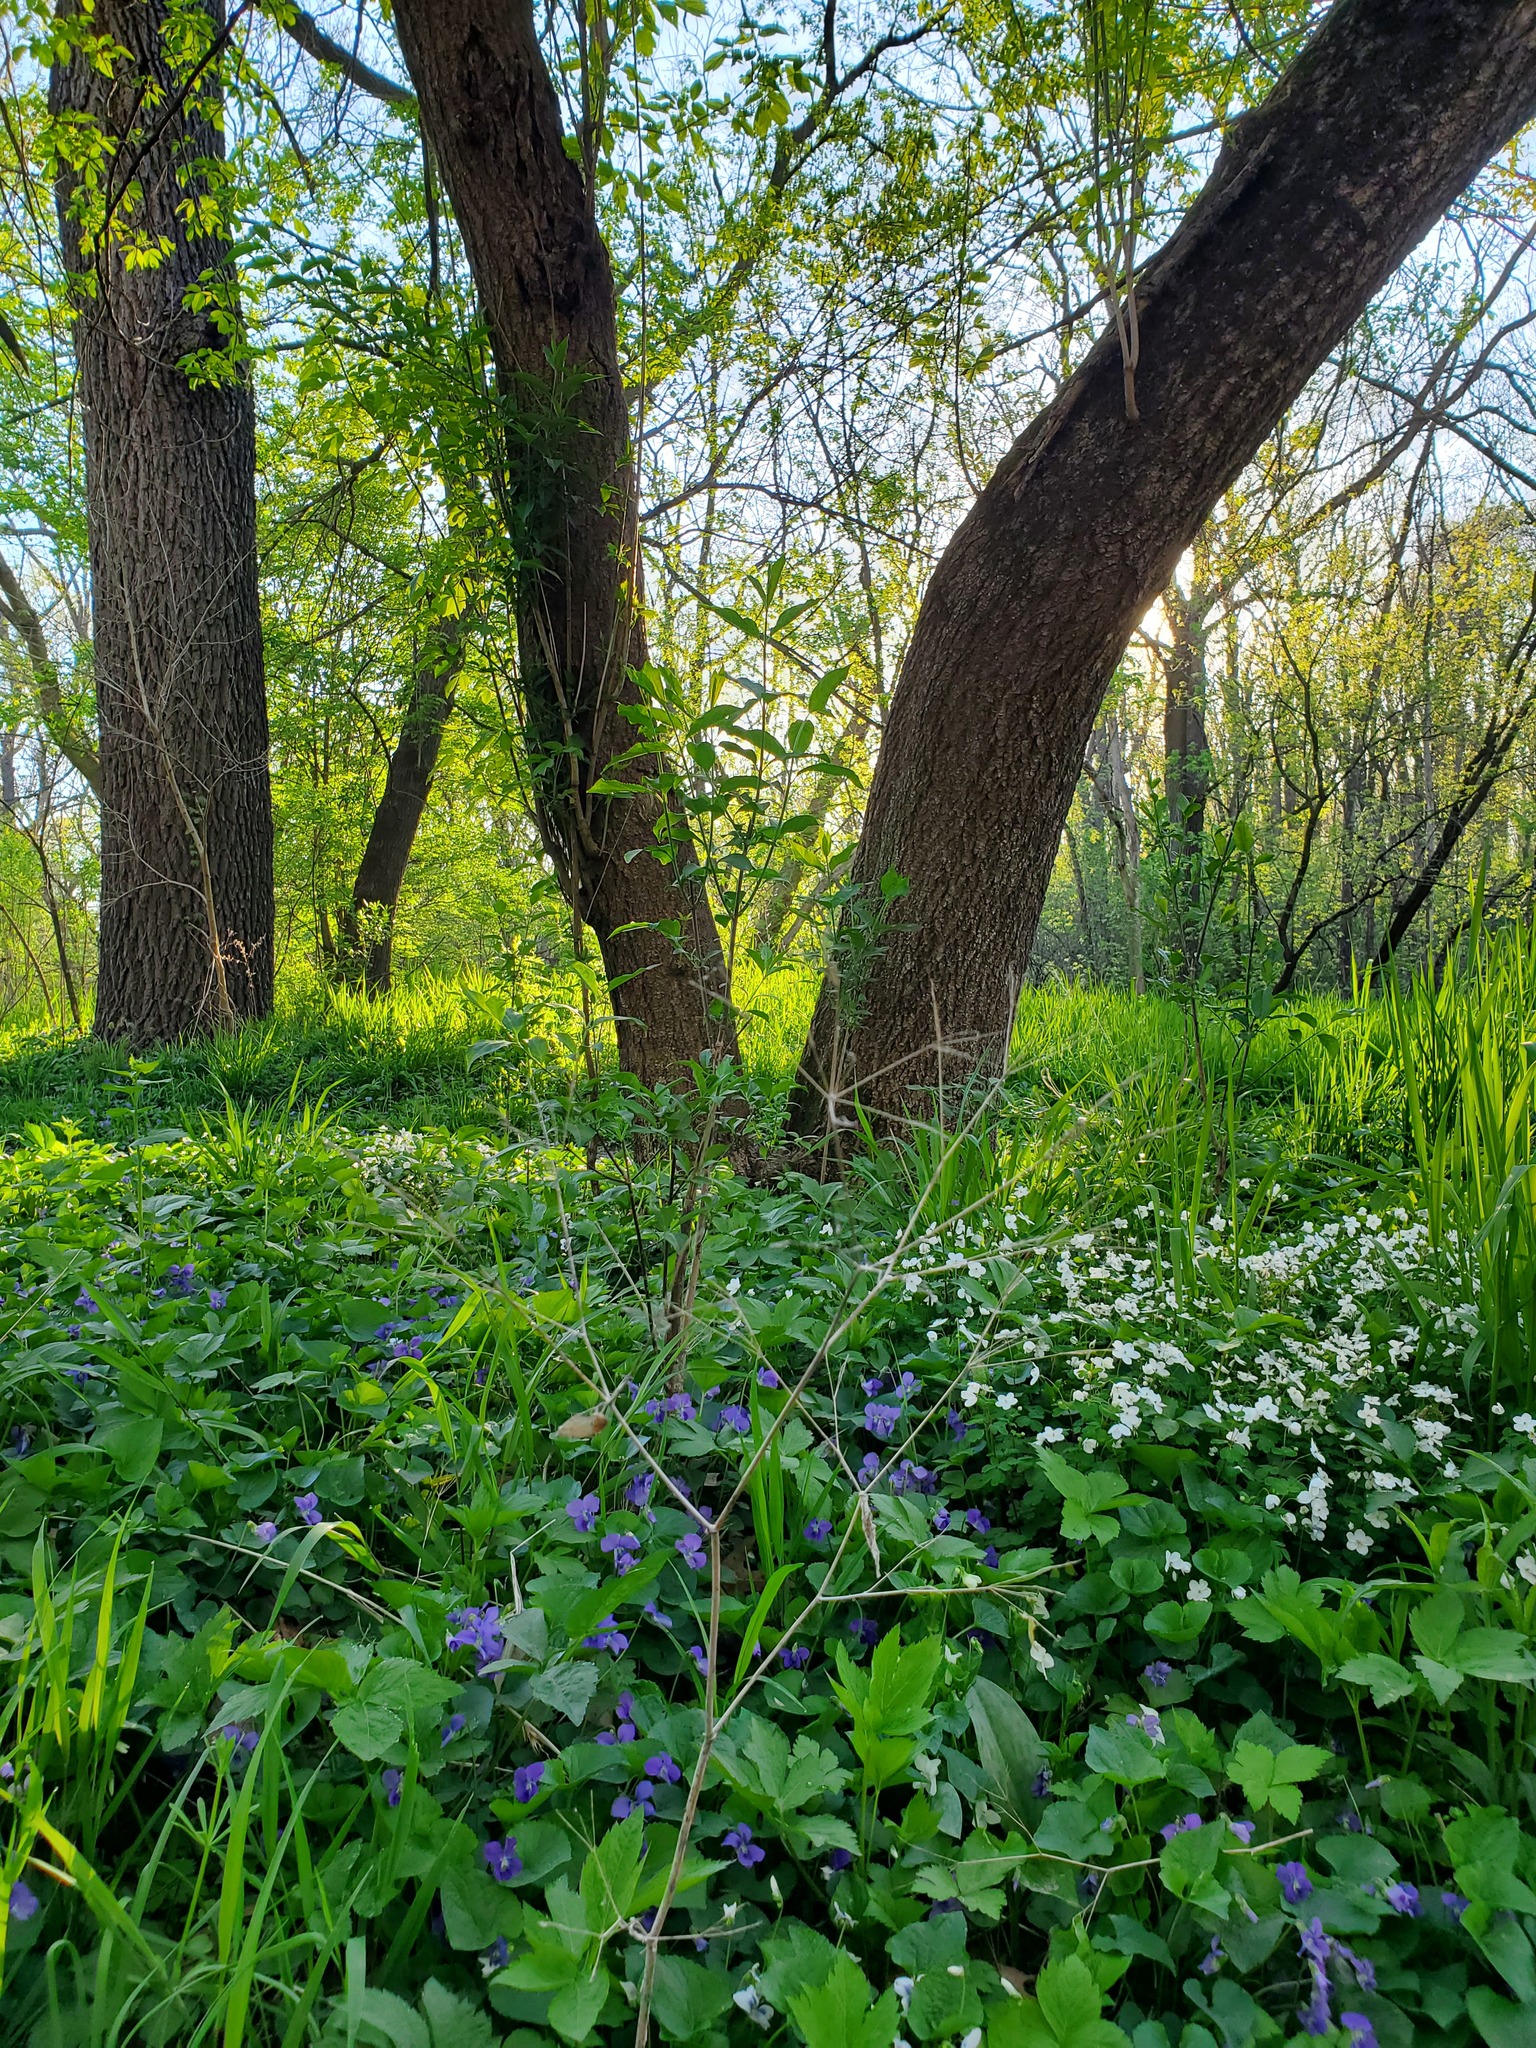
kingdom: Plantae
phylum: Tracheophyta
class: Magnoliopsida
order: Sapindales
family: Sapindaceae
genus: Acer
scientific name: Acer negundo
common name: Ashleaf maple
